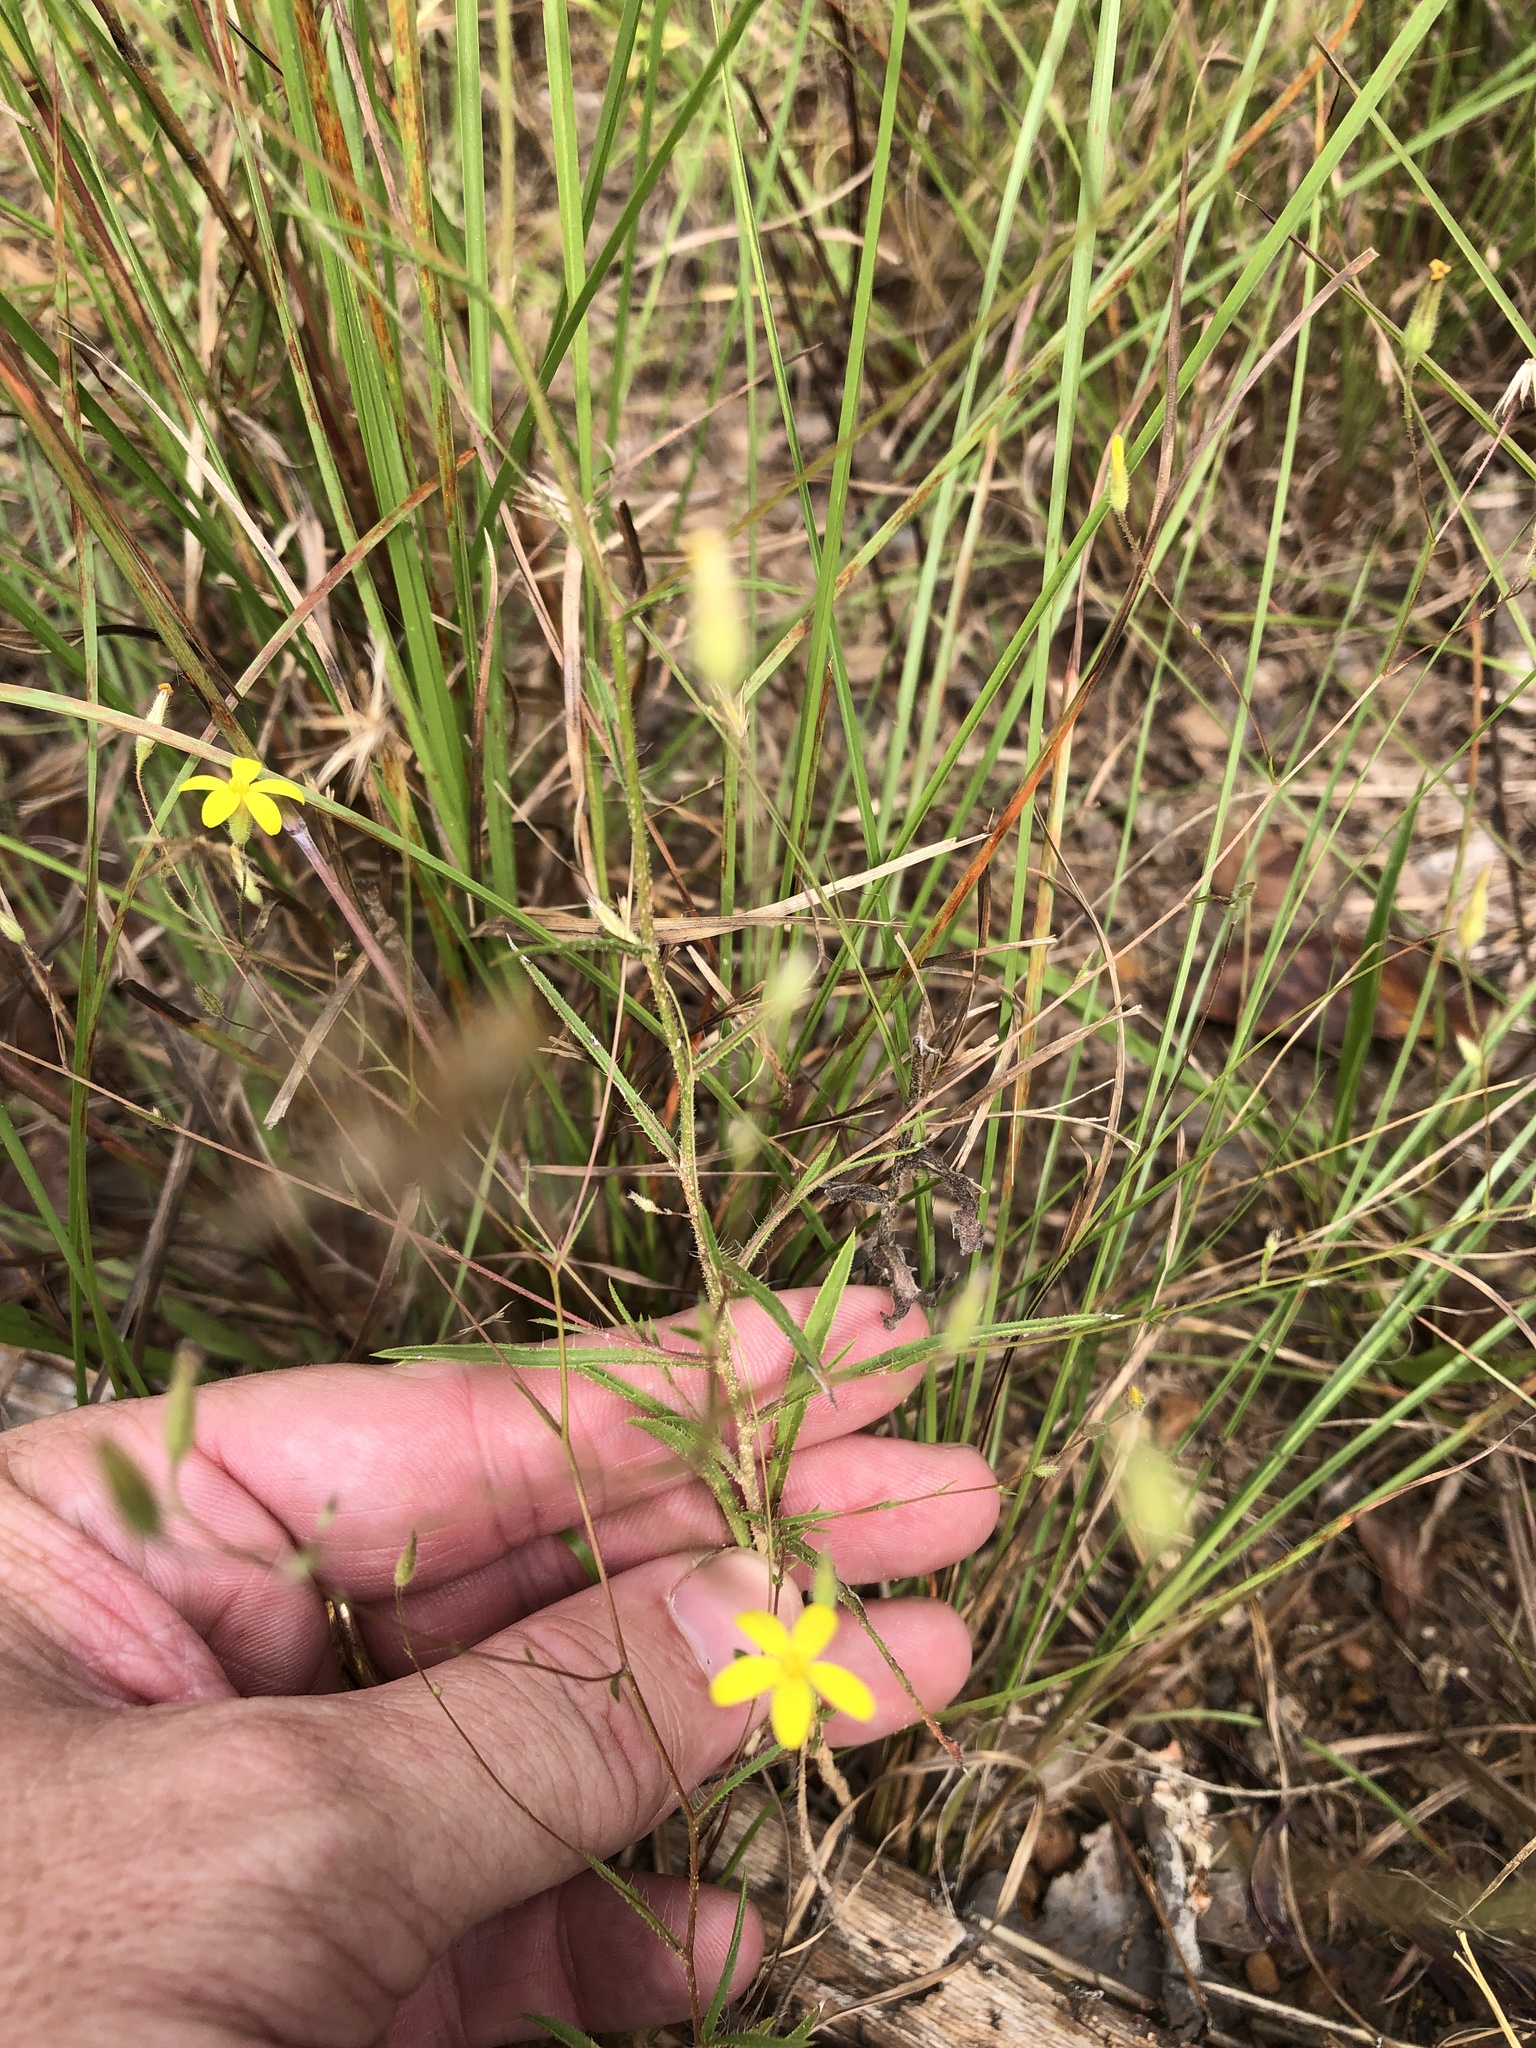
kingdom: Plantae
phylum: Tracheophyta
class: Magnoliopsida
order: Asterales
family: Asteraceae
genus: Croptilon
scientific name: Croptilon divaricatum
